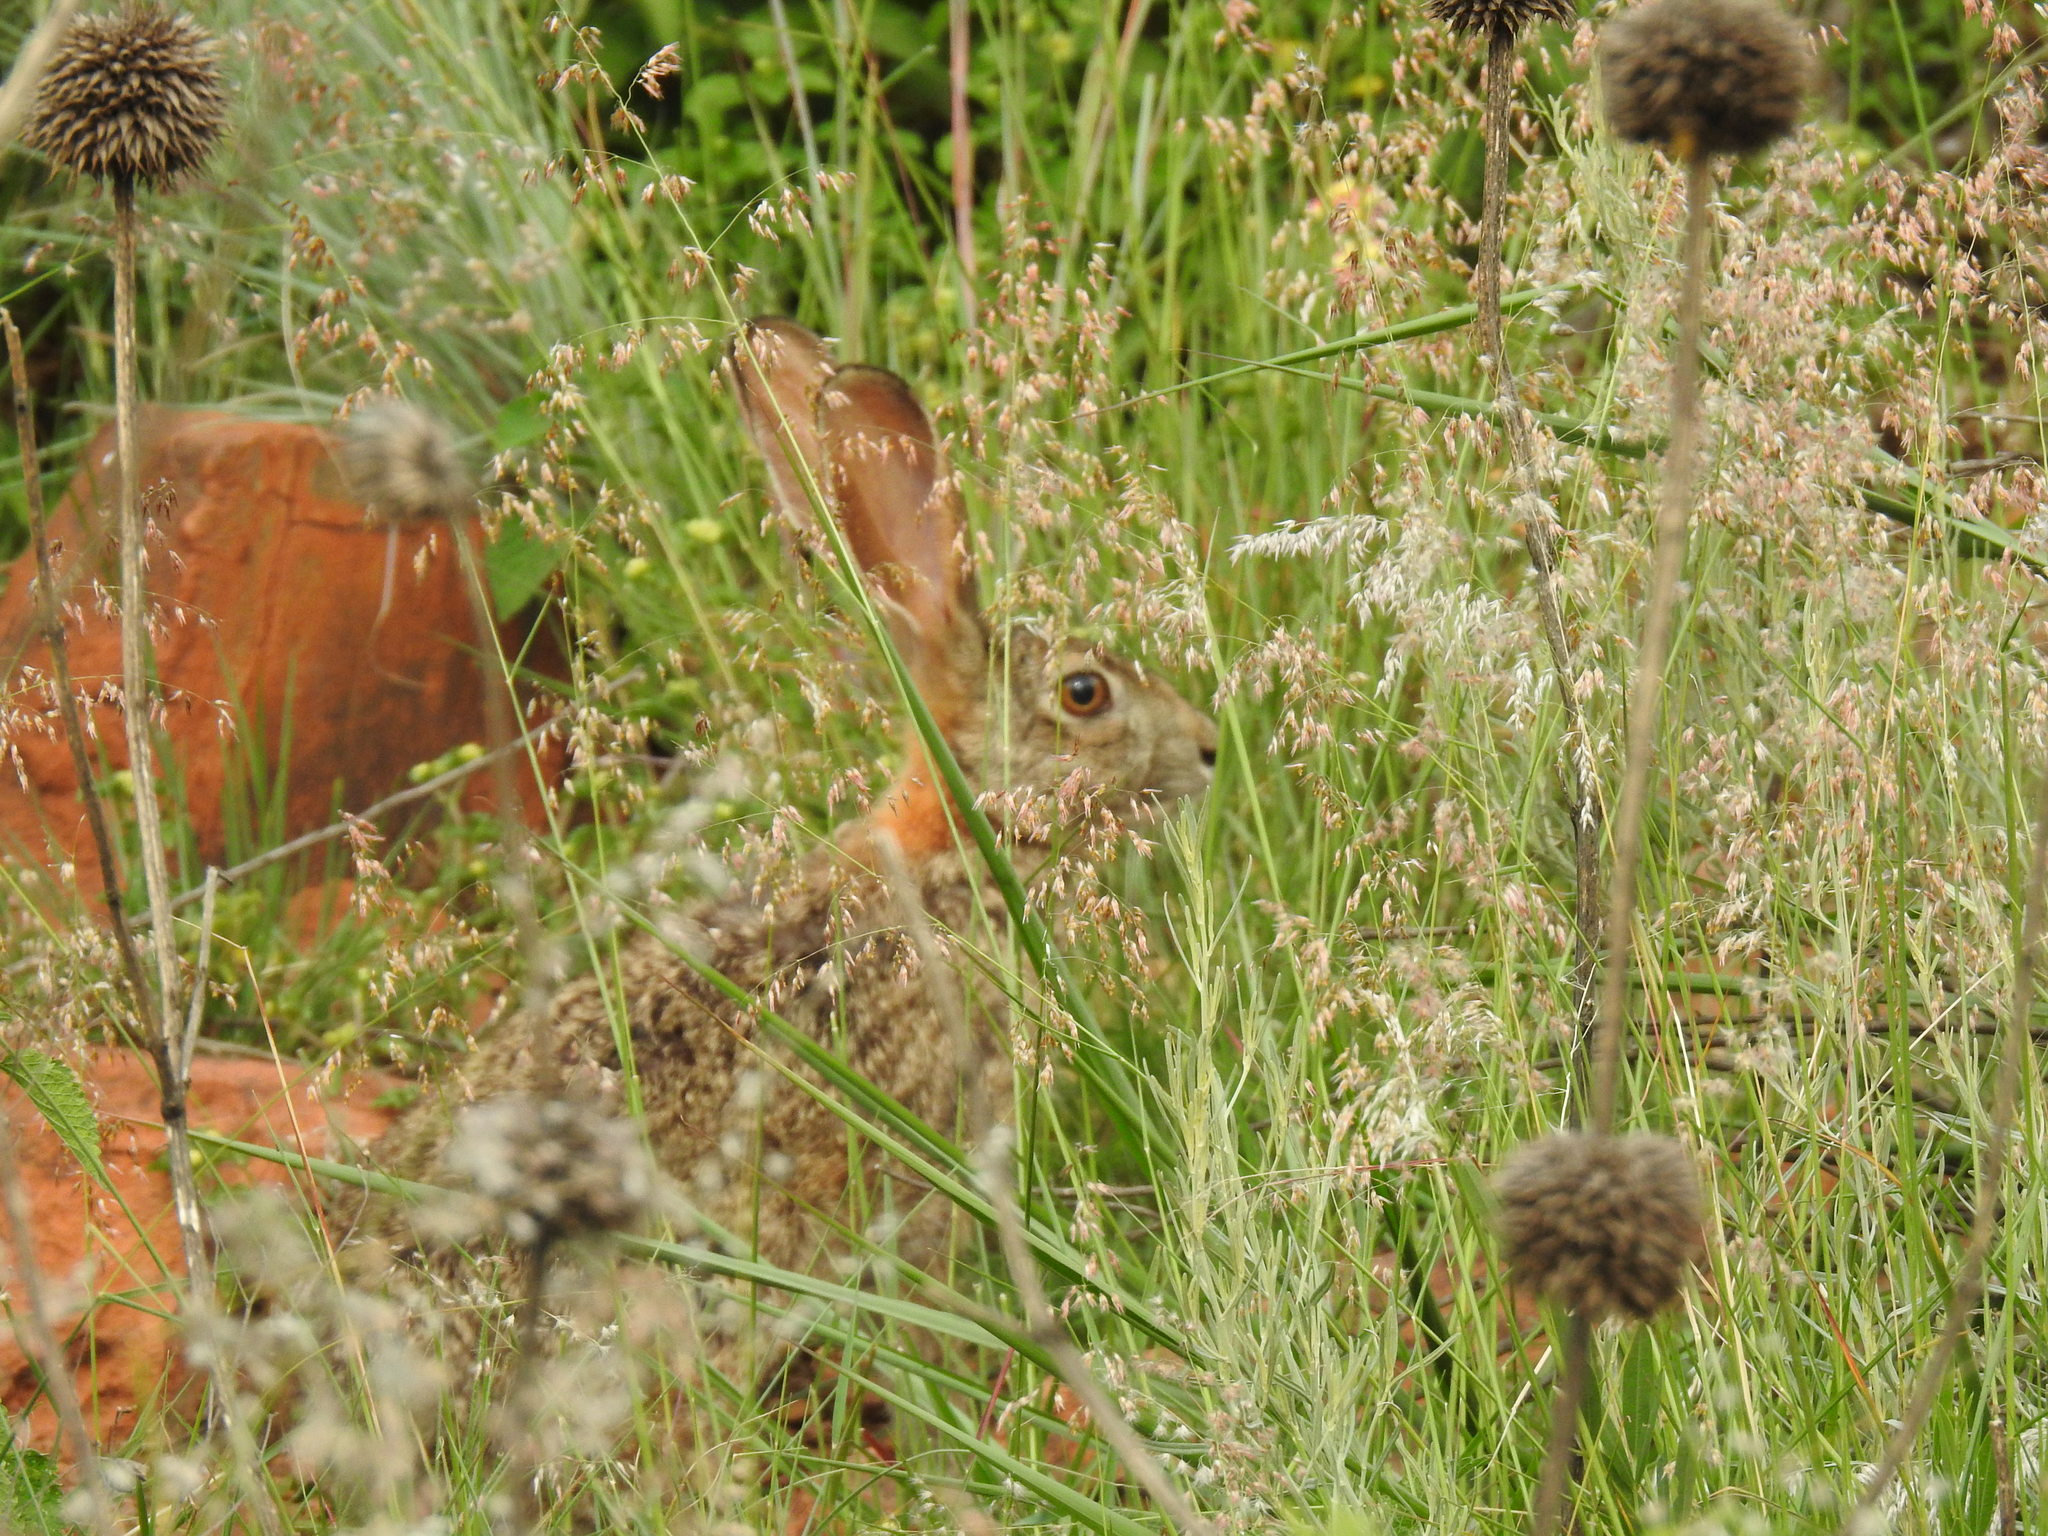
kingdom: Animalia
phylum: Chordata
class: Mammalia
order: Lagomorpha
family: Leporidae
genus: Lepus
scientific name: Lepus saxatilis
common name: Scrub hare
